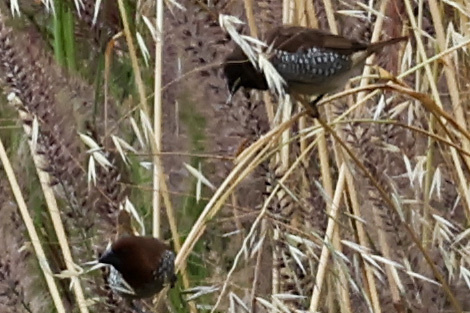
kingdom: Animalia
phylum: Chordata
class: Aves
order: Passeriformes
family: Estrildidae
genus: Lonchura
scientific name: Lonchura punctulata
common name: Scaly-breasted munia
